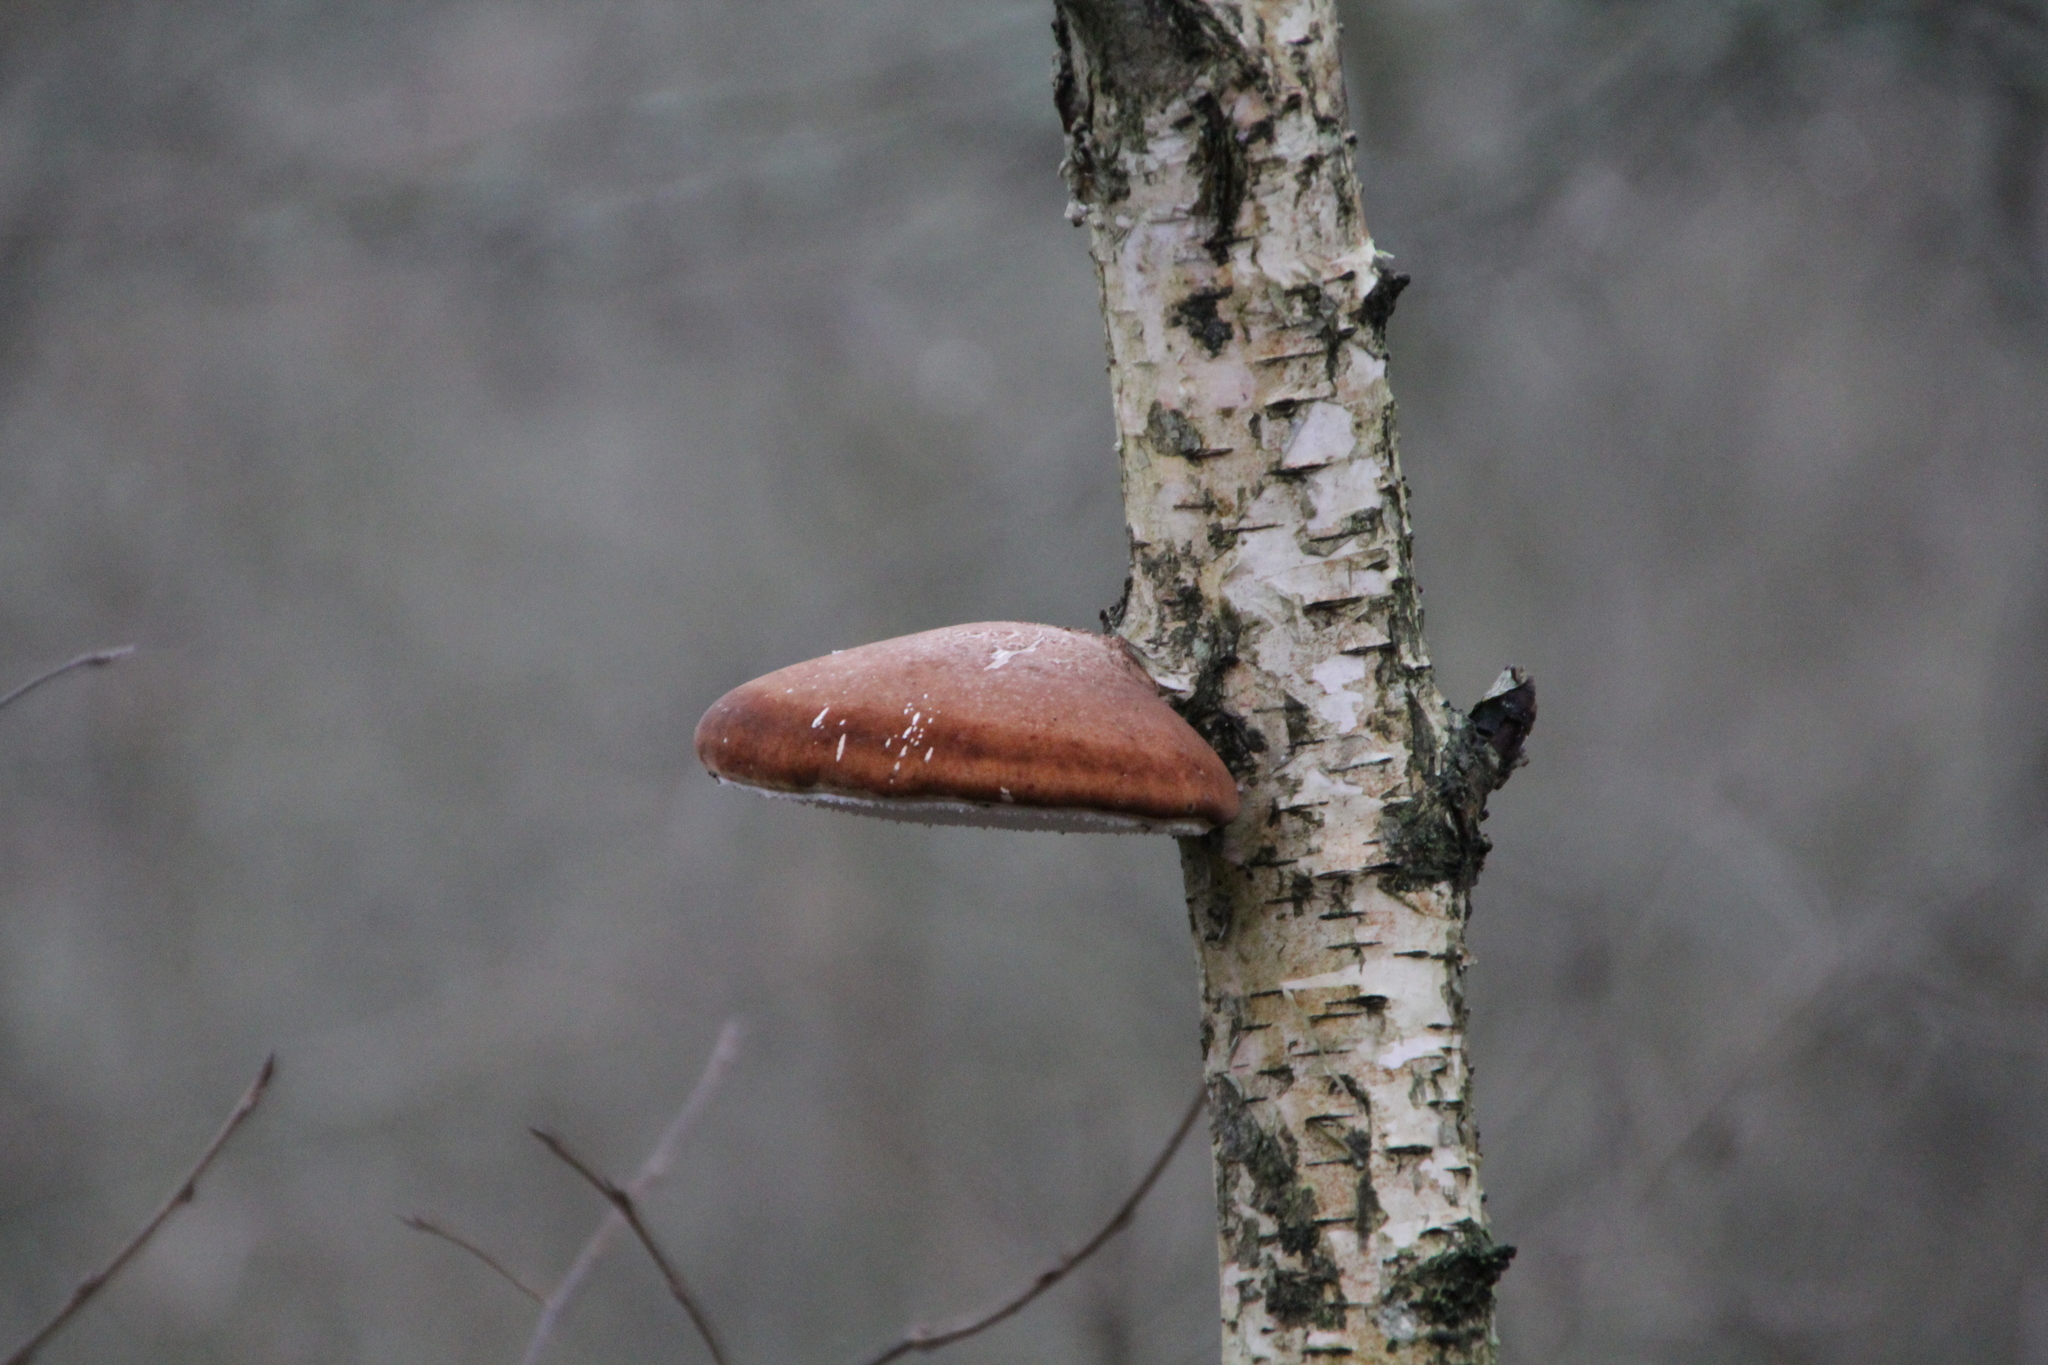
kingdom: Fungi
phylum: Basidiomycota
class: Agaricomycetes
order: Polyporales
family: Fomitopsidaceae
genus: Fomitopsis
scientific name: Fomitopsis betulina
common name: Birch polypore
